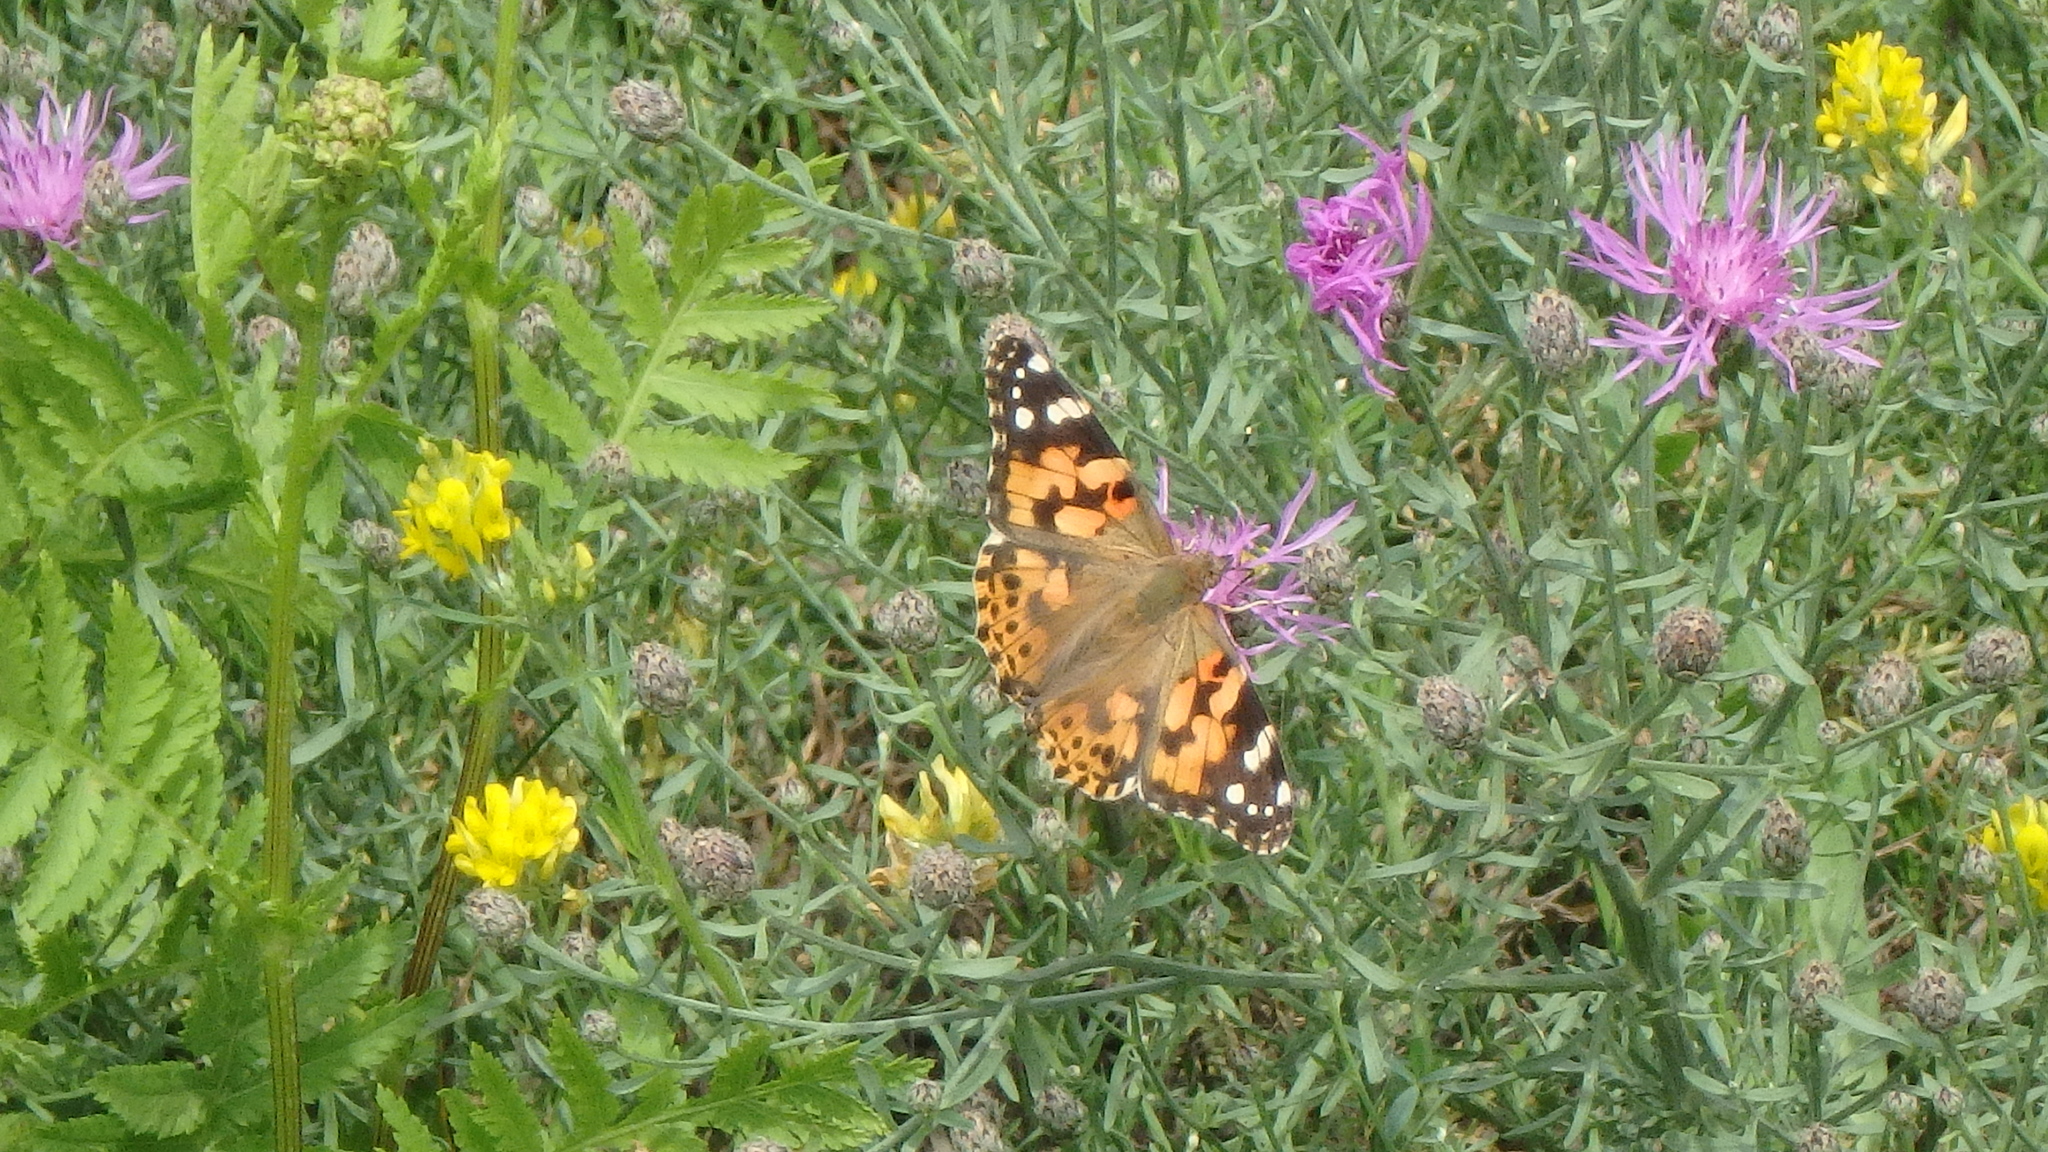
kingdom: Animalia
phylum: Arthropoda
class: Insecta
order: Lepidoptera
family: Nymphalidae
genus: Vanessa
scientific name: Vanessa cardui
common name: Painted lady
